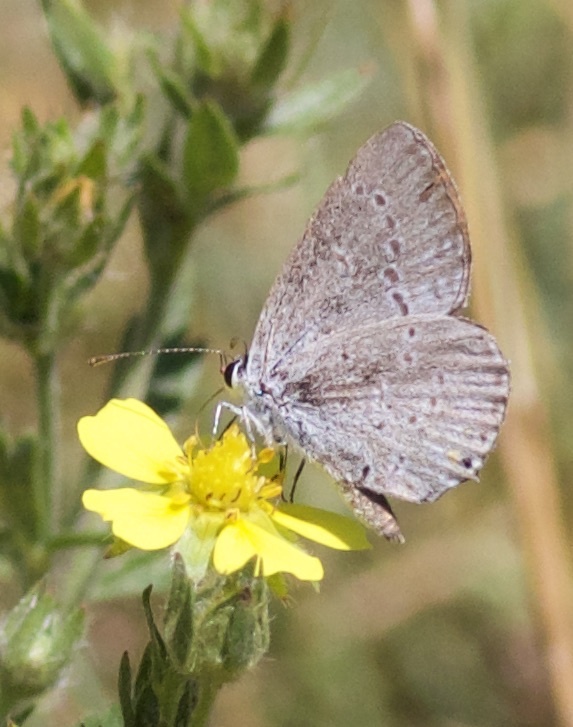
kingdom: Animalia
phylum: Arthropoda
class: Insecta
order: Lepidoptera
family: Lycaenidae
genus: Elkalyce
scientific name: Elkalyce comyntas
